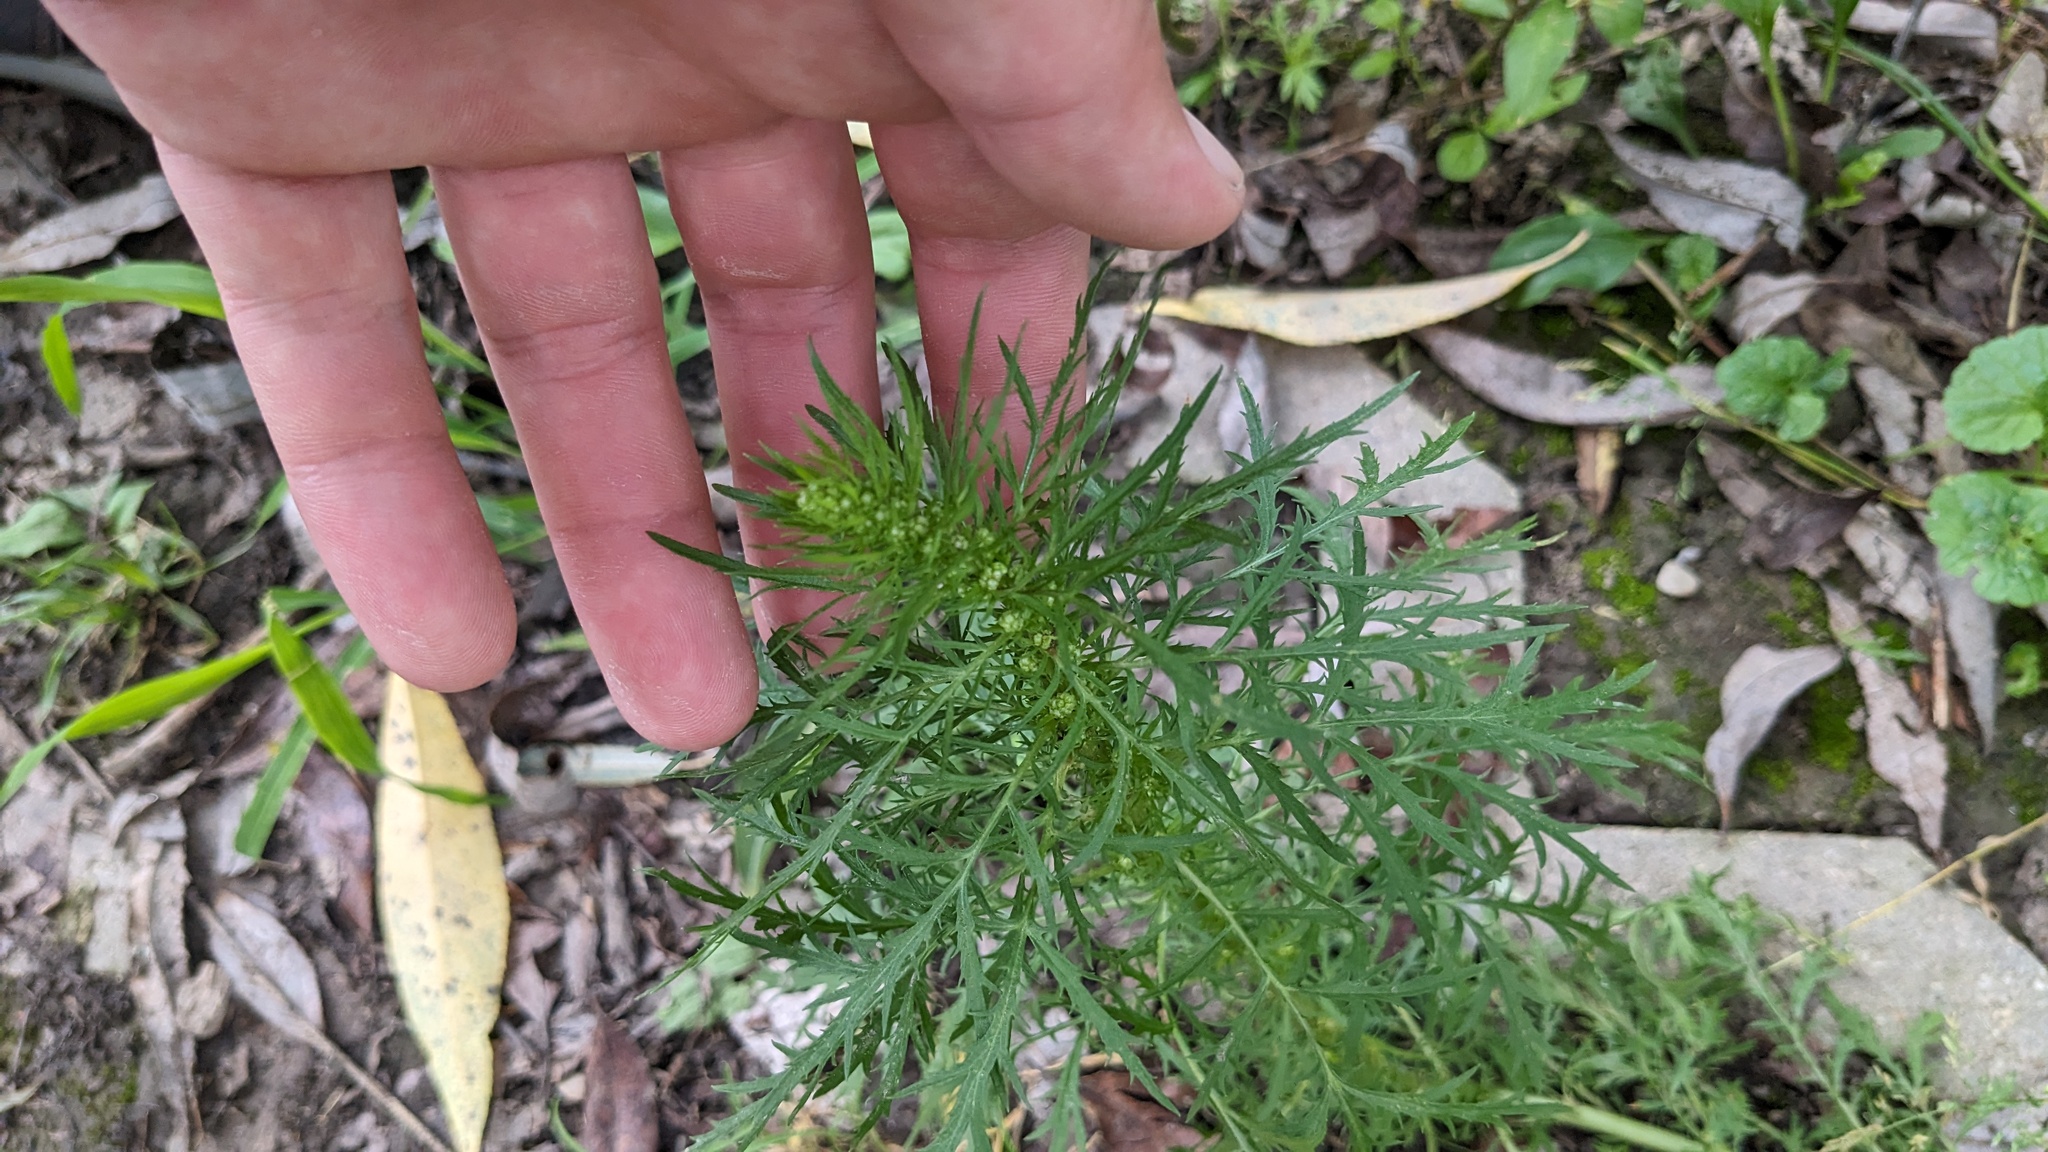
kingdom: Plantae
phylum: Tracheophyta
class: Magnoliopsida
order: Asterales
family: Asteraceae
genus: Artemisia
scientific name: Artemisia biennis
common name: Biennial wormwood
